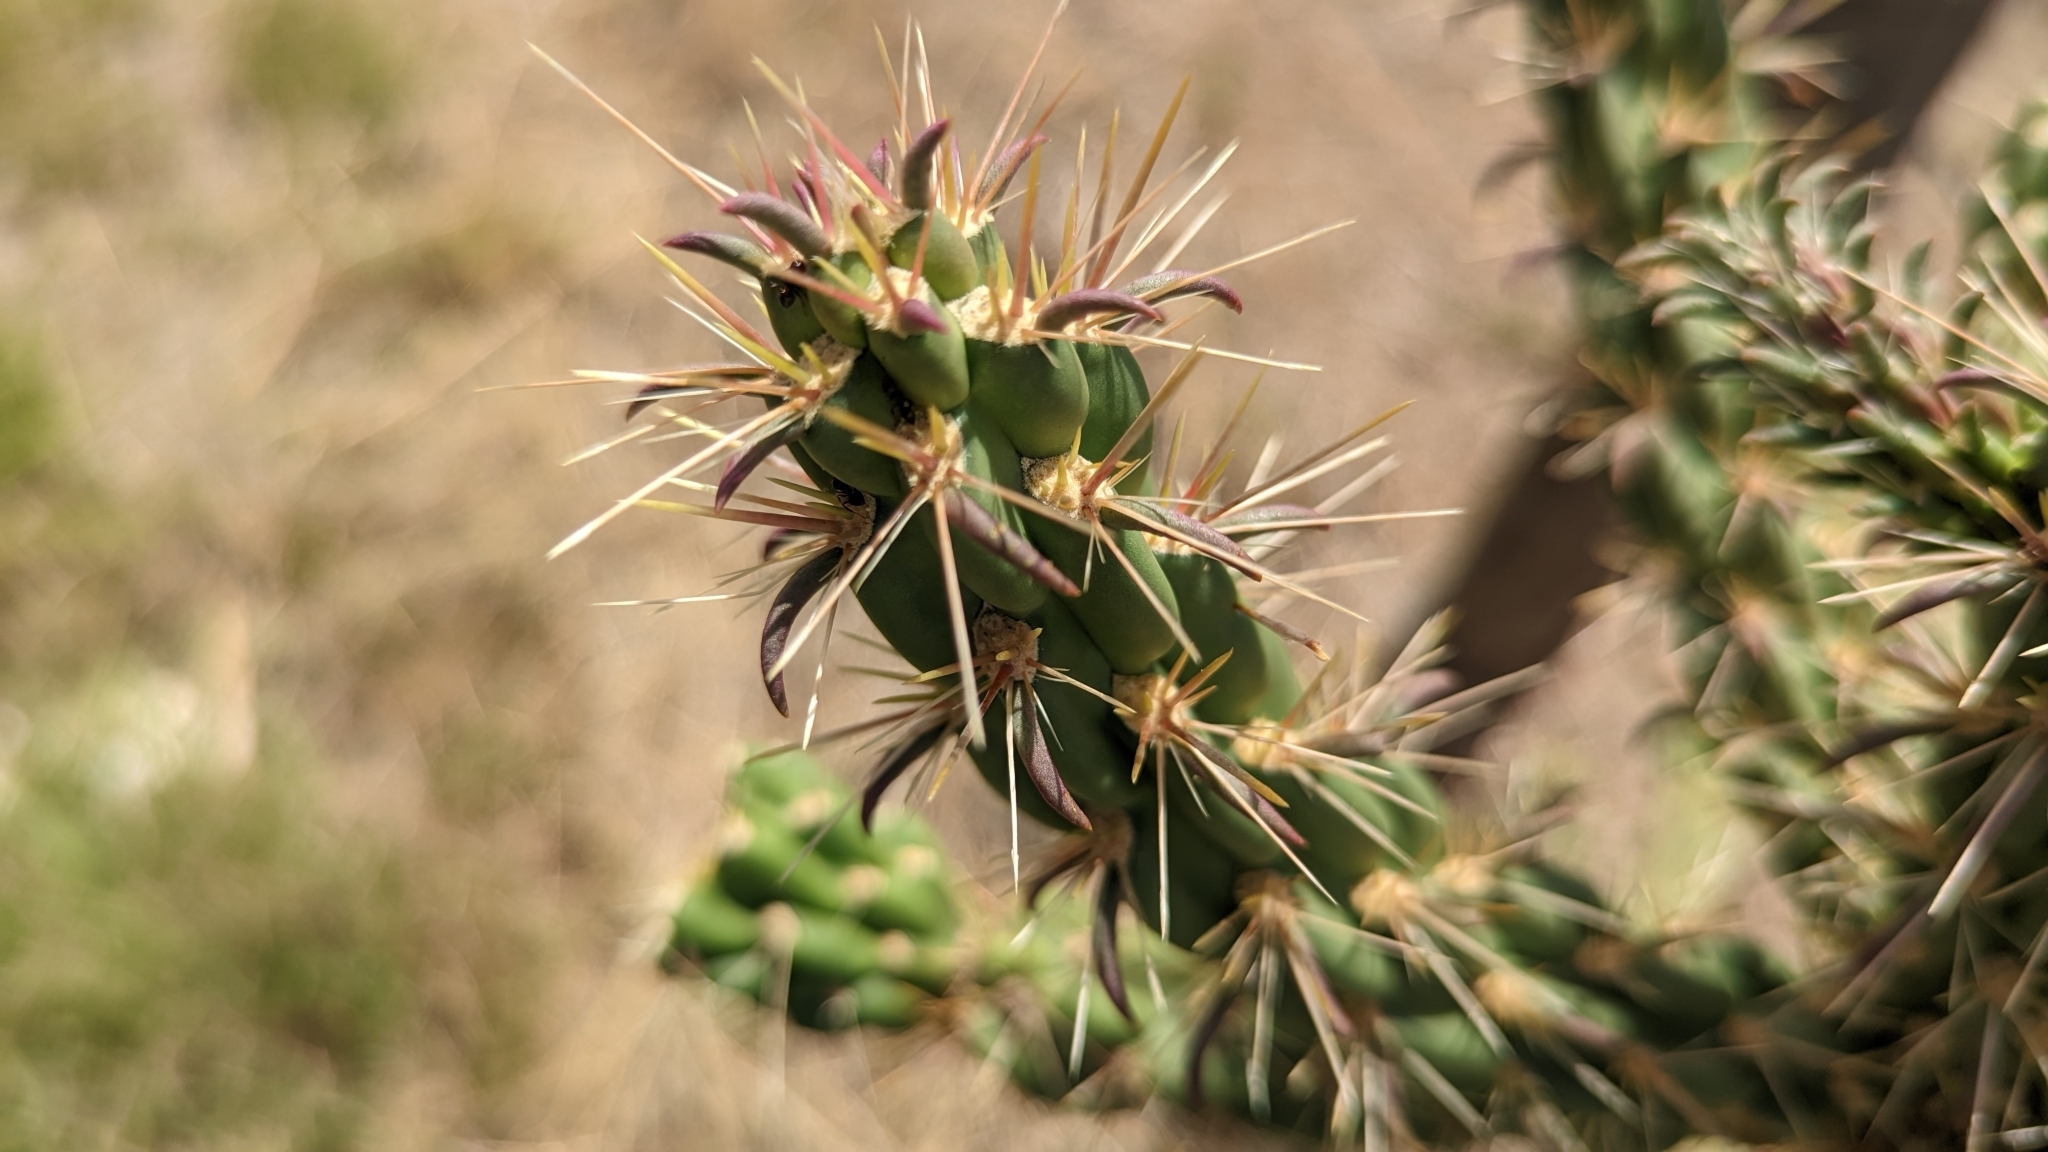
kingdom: Plantae
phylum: Tracheophyta
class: Magnoliopsida
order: Caryophyllales
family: Cactaceae
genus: Cylindropuntia
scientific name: Cylindropuntia imbricata
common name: Candelabrum cactus
